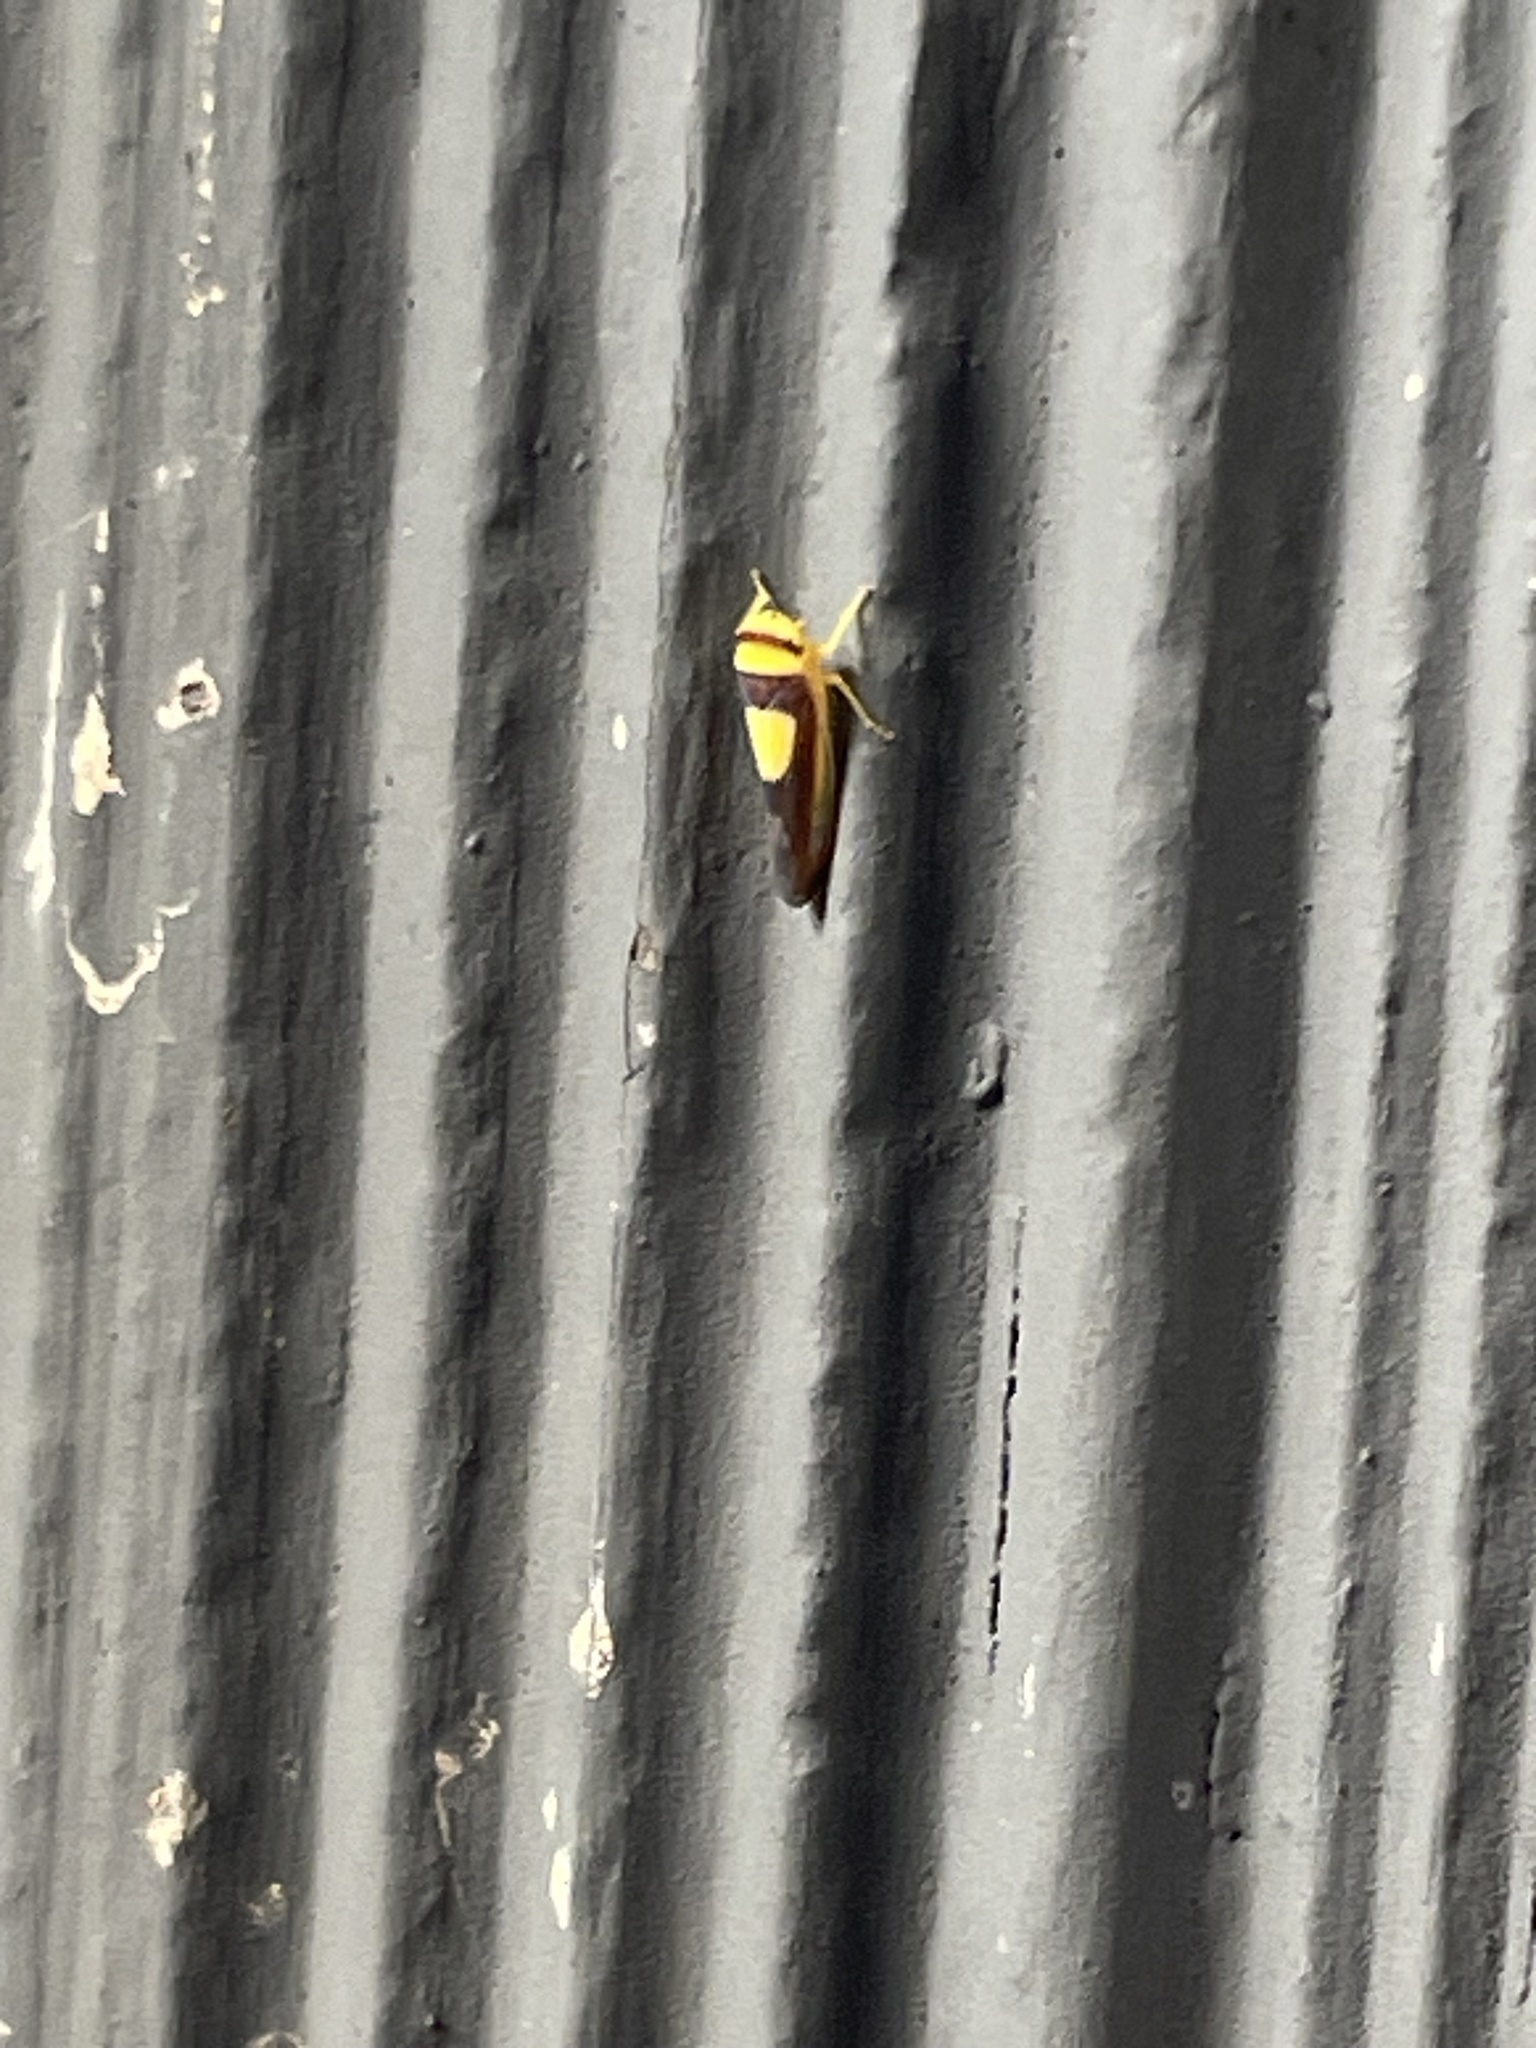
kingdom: Animalia
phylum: Arthropoda
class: Insecta
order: Hemiptera
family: Cicadellidae
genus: Colladonus
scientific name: Colladonus clitellarius
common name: The saddleback leafhopper
